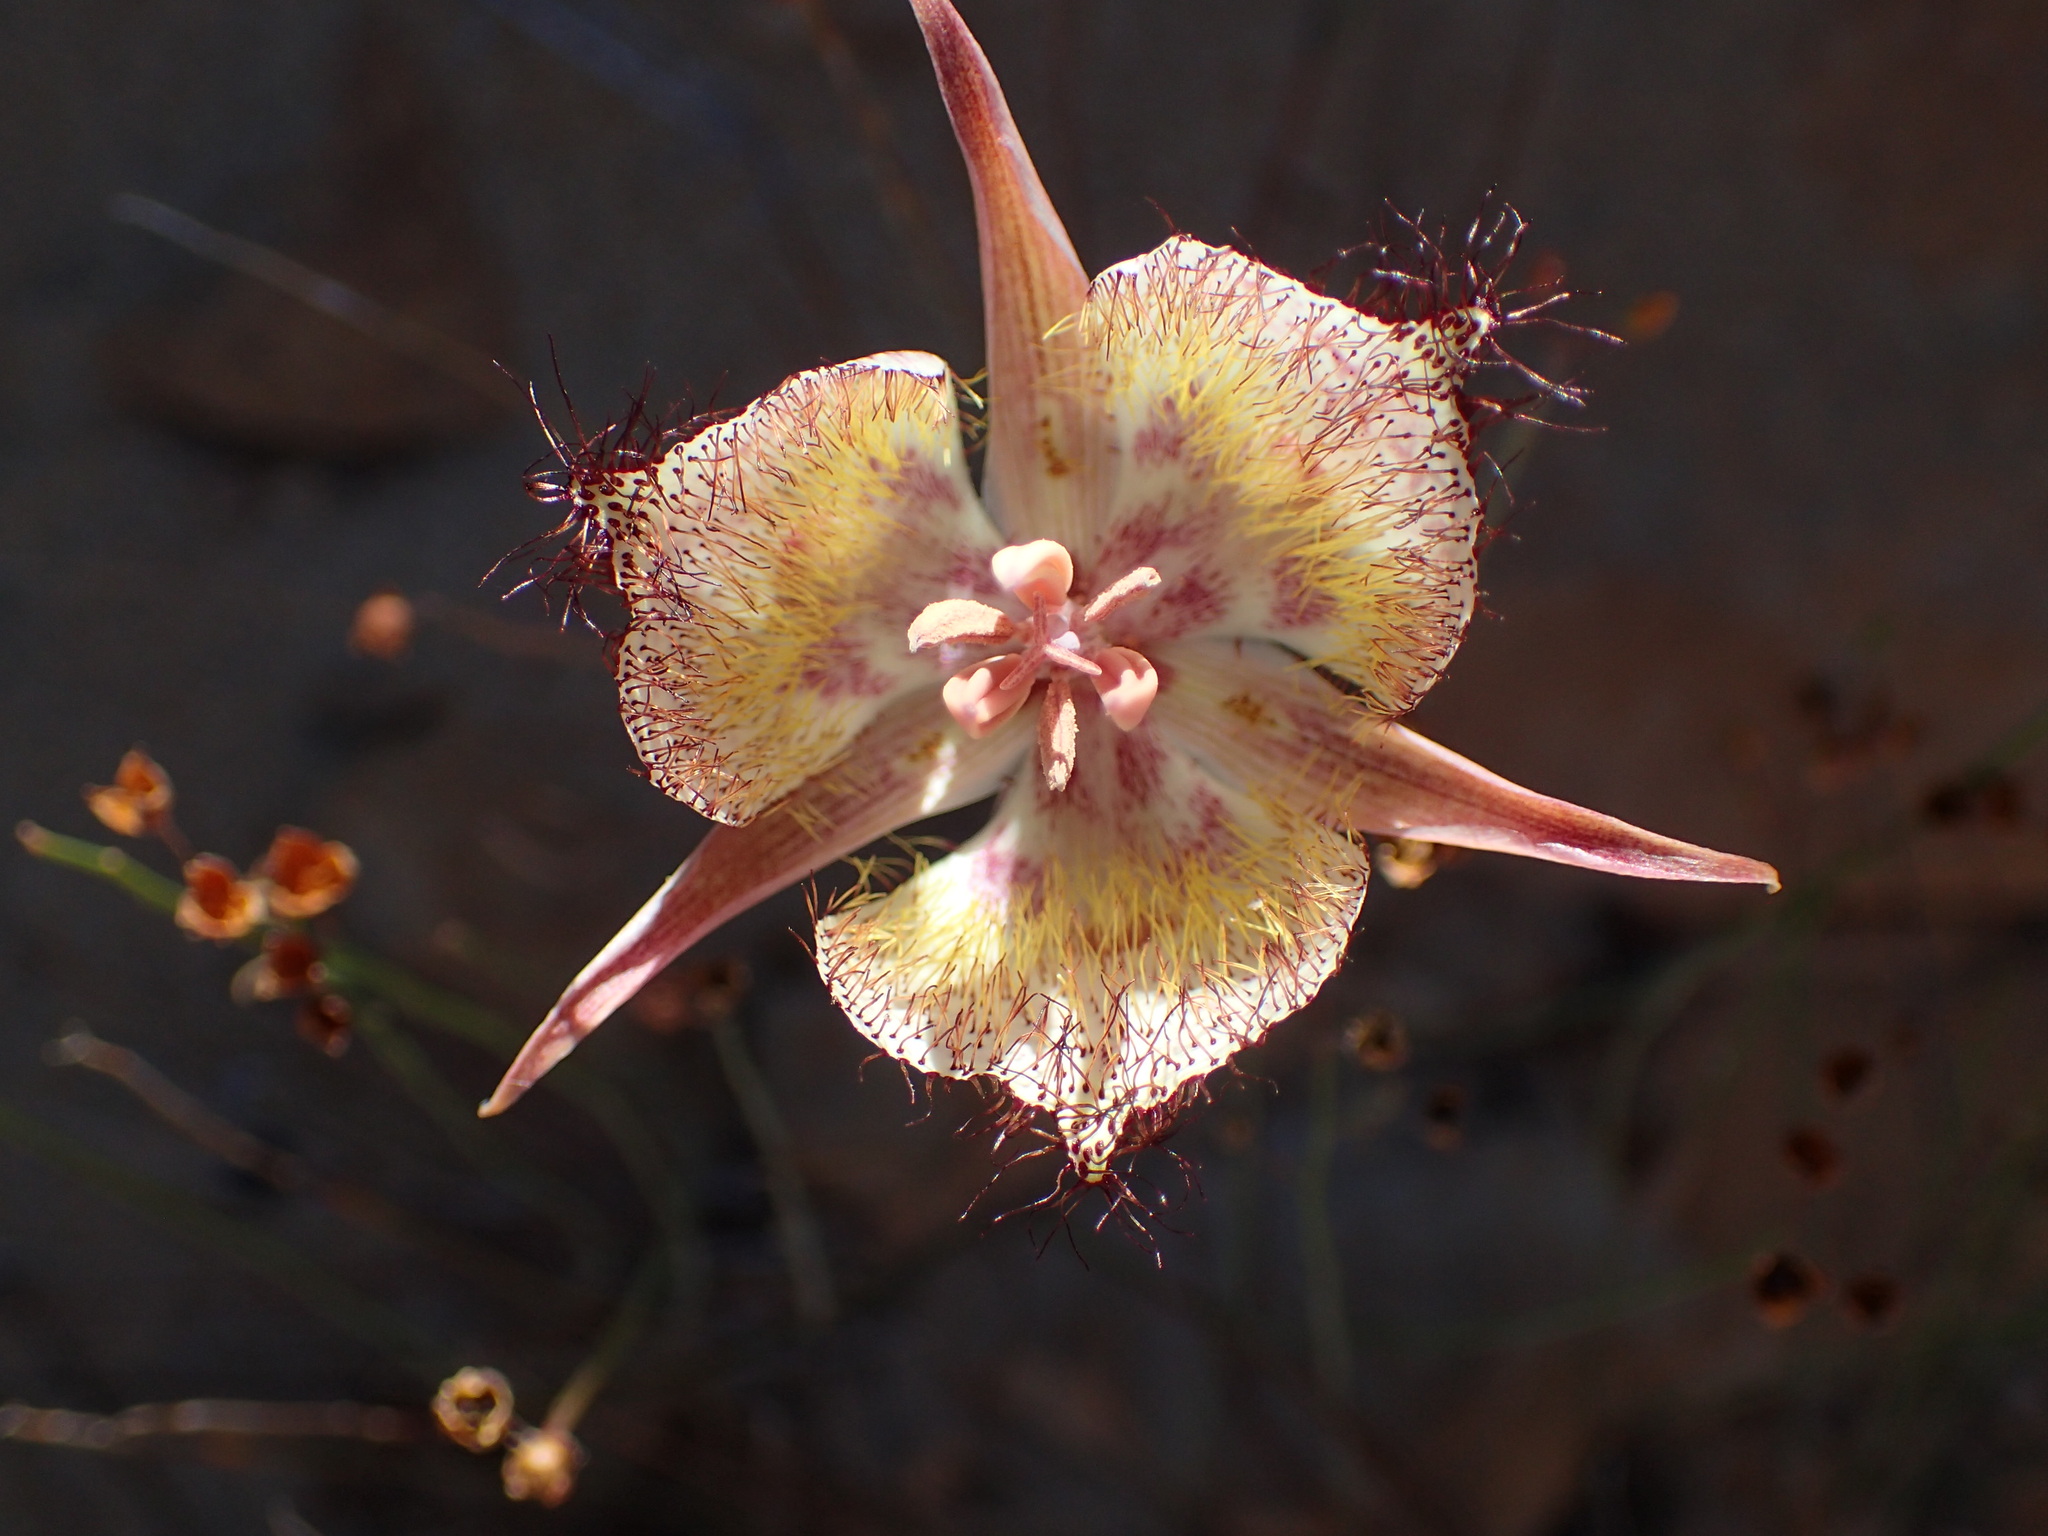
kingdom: Plantae
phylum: Tracheophyta
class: Liliopsida
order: Liliales
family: Liliaceae
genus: Calochortus
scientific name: Calochortus fimbriatus
